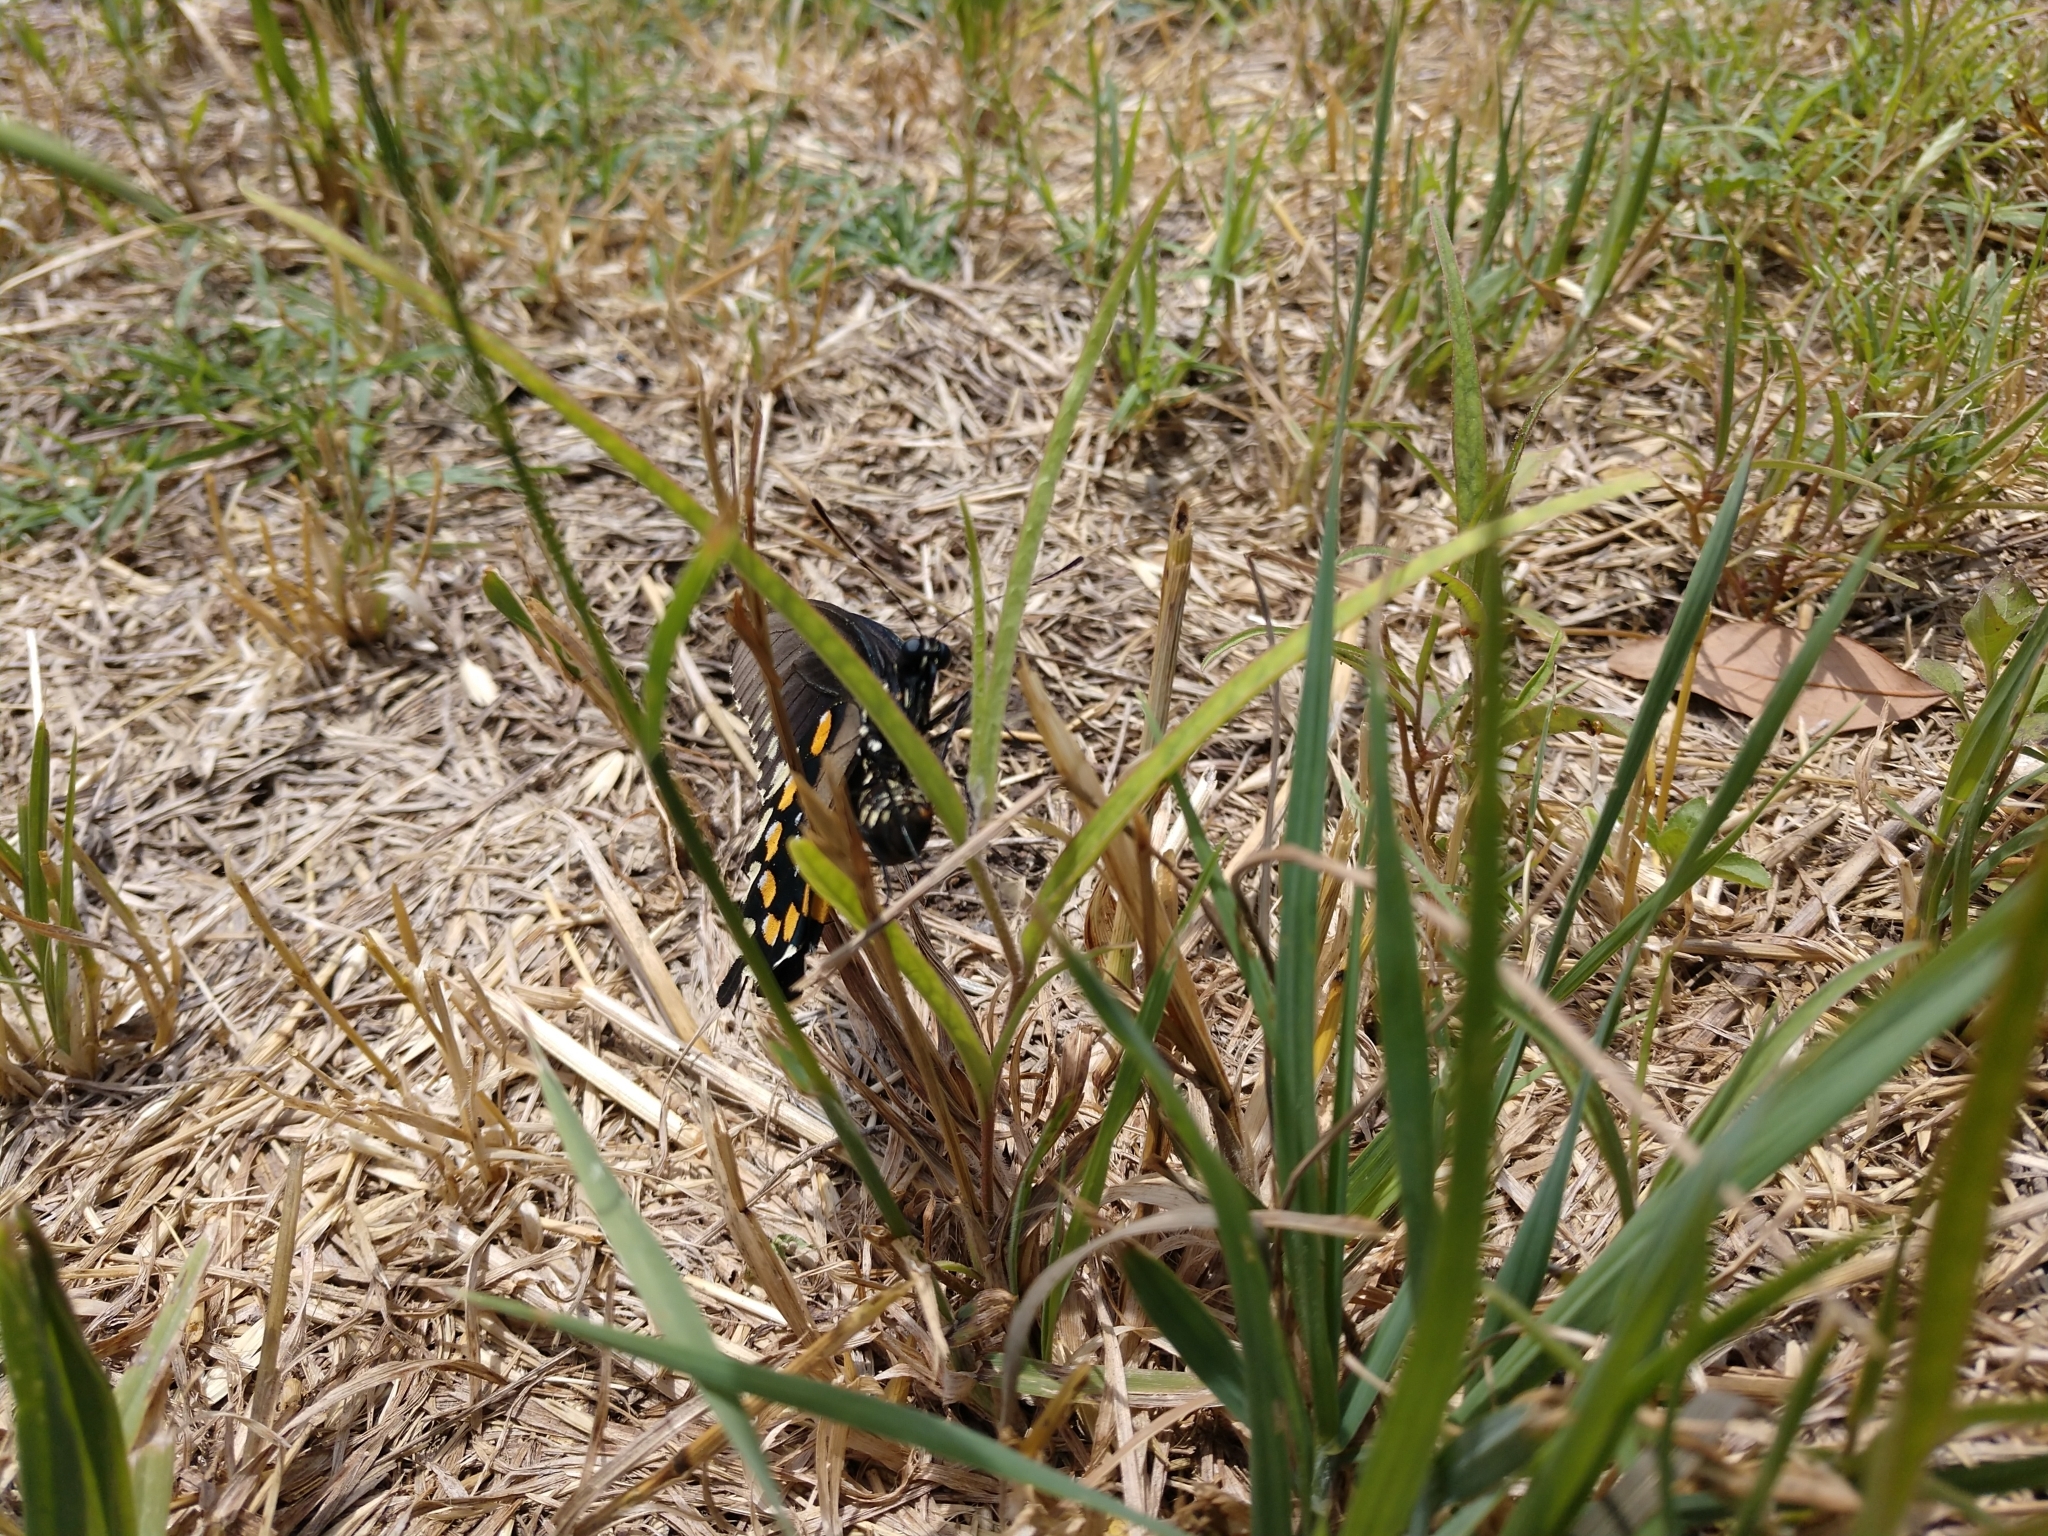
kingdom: Plantae
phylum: Tracheophyta
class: Magnoliopsida
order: Piperales
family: Aristolochiaceae
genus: Aristolochia
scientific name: Aristolochia erecta
